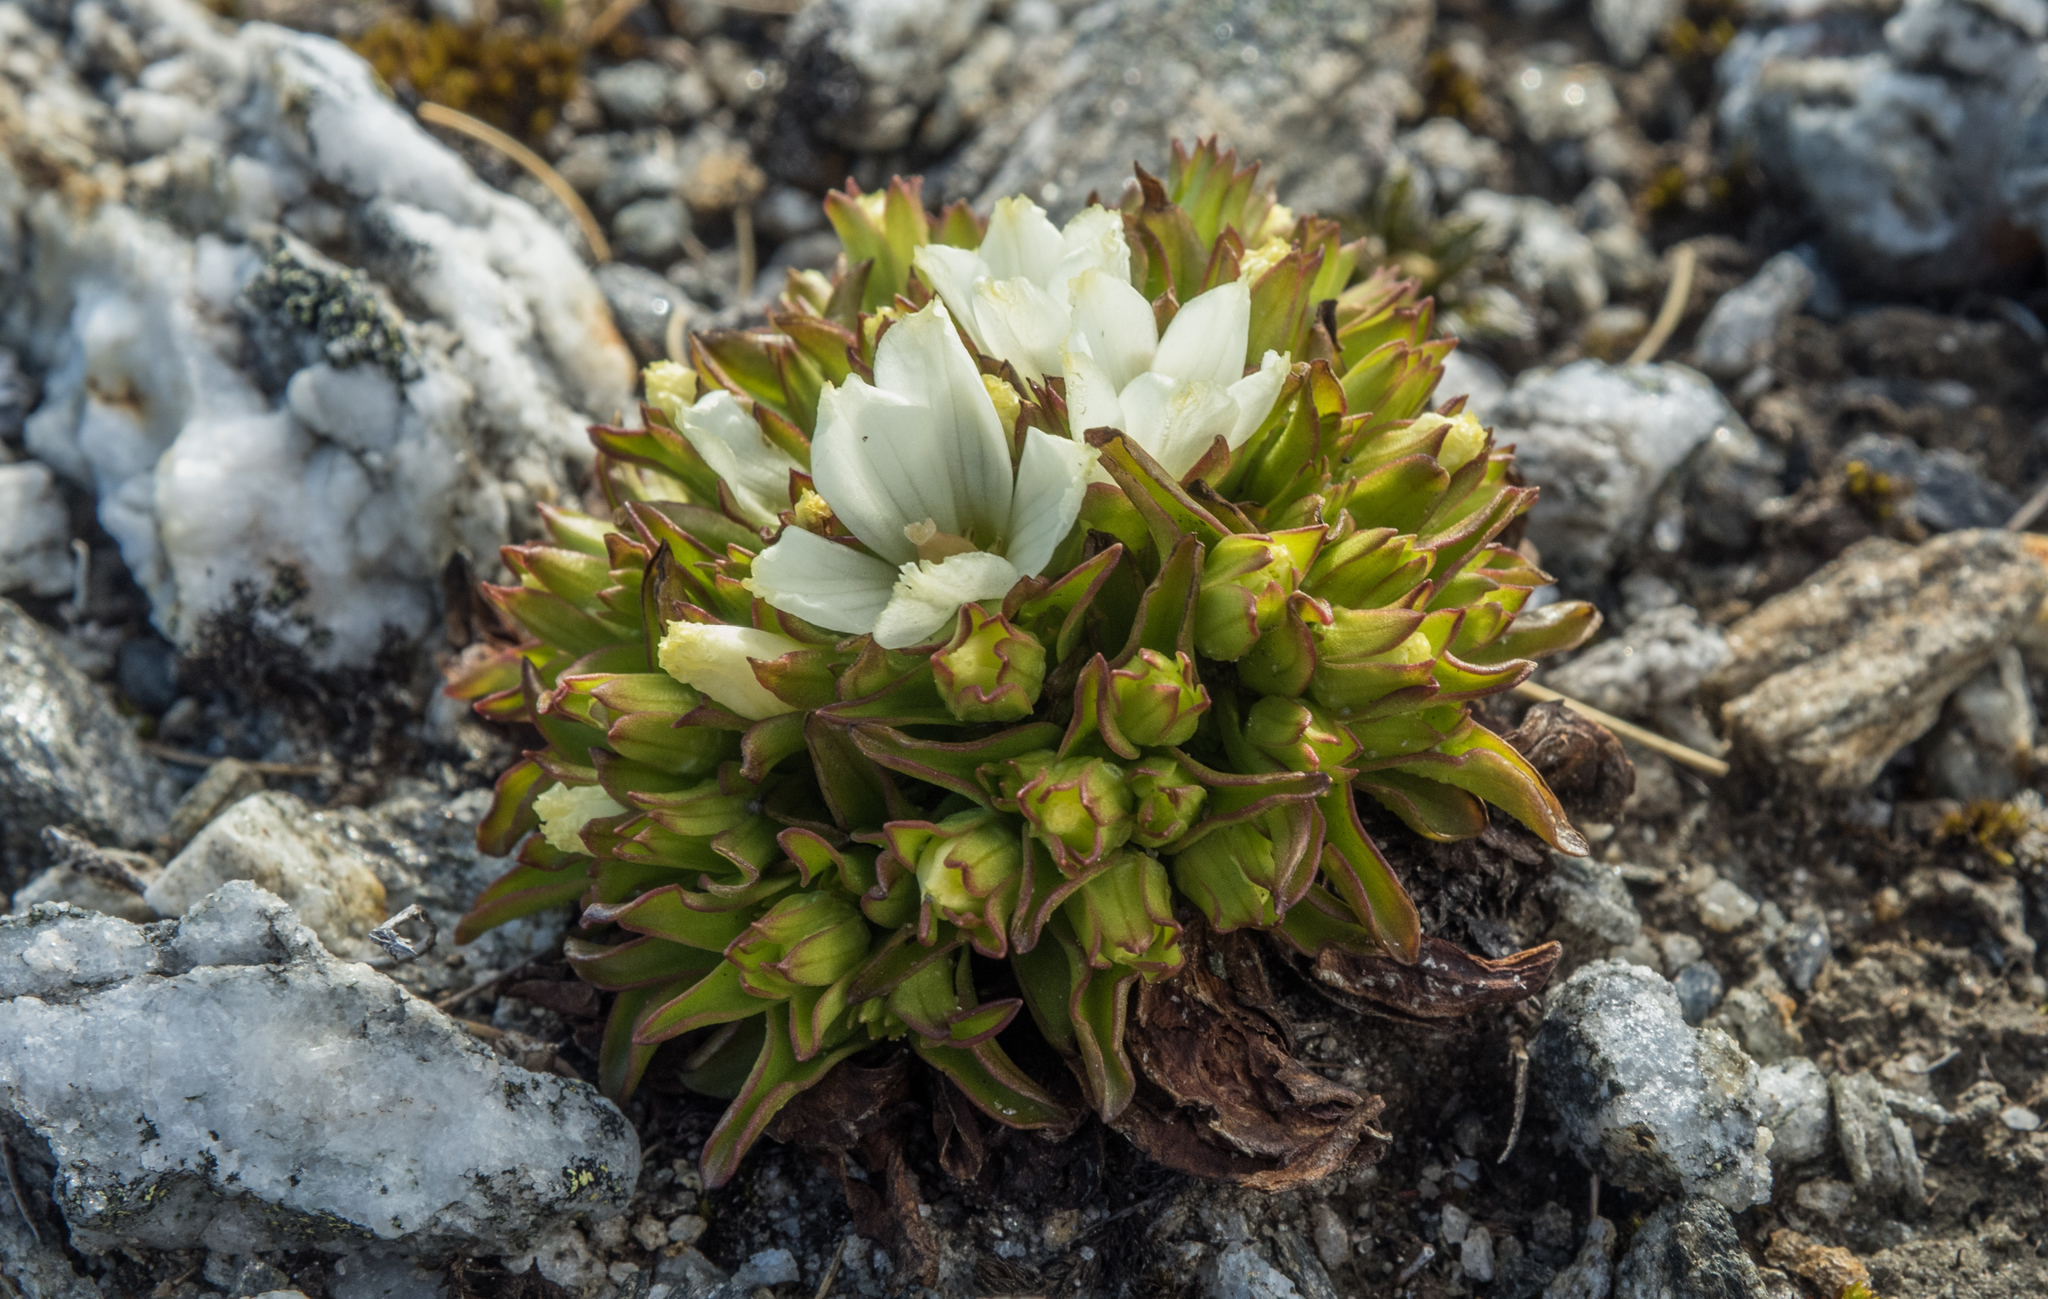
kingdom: Plantae
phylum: Tracheophyta
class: Magnoliopsida
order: Gentianales
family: Gentianaceae
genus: Gentianella
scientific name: Gentianella divisa
